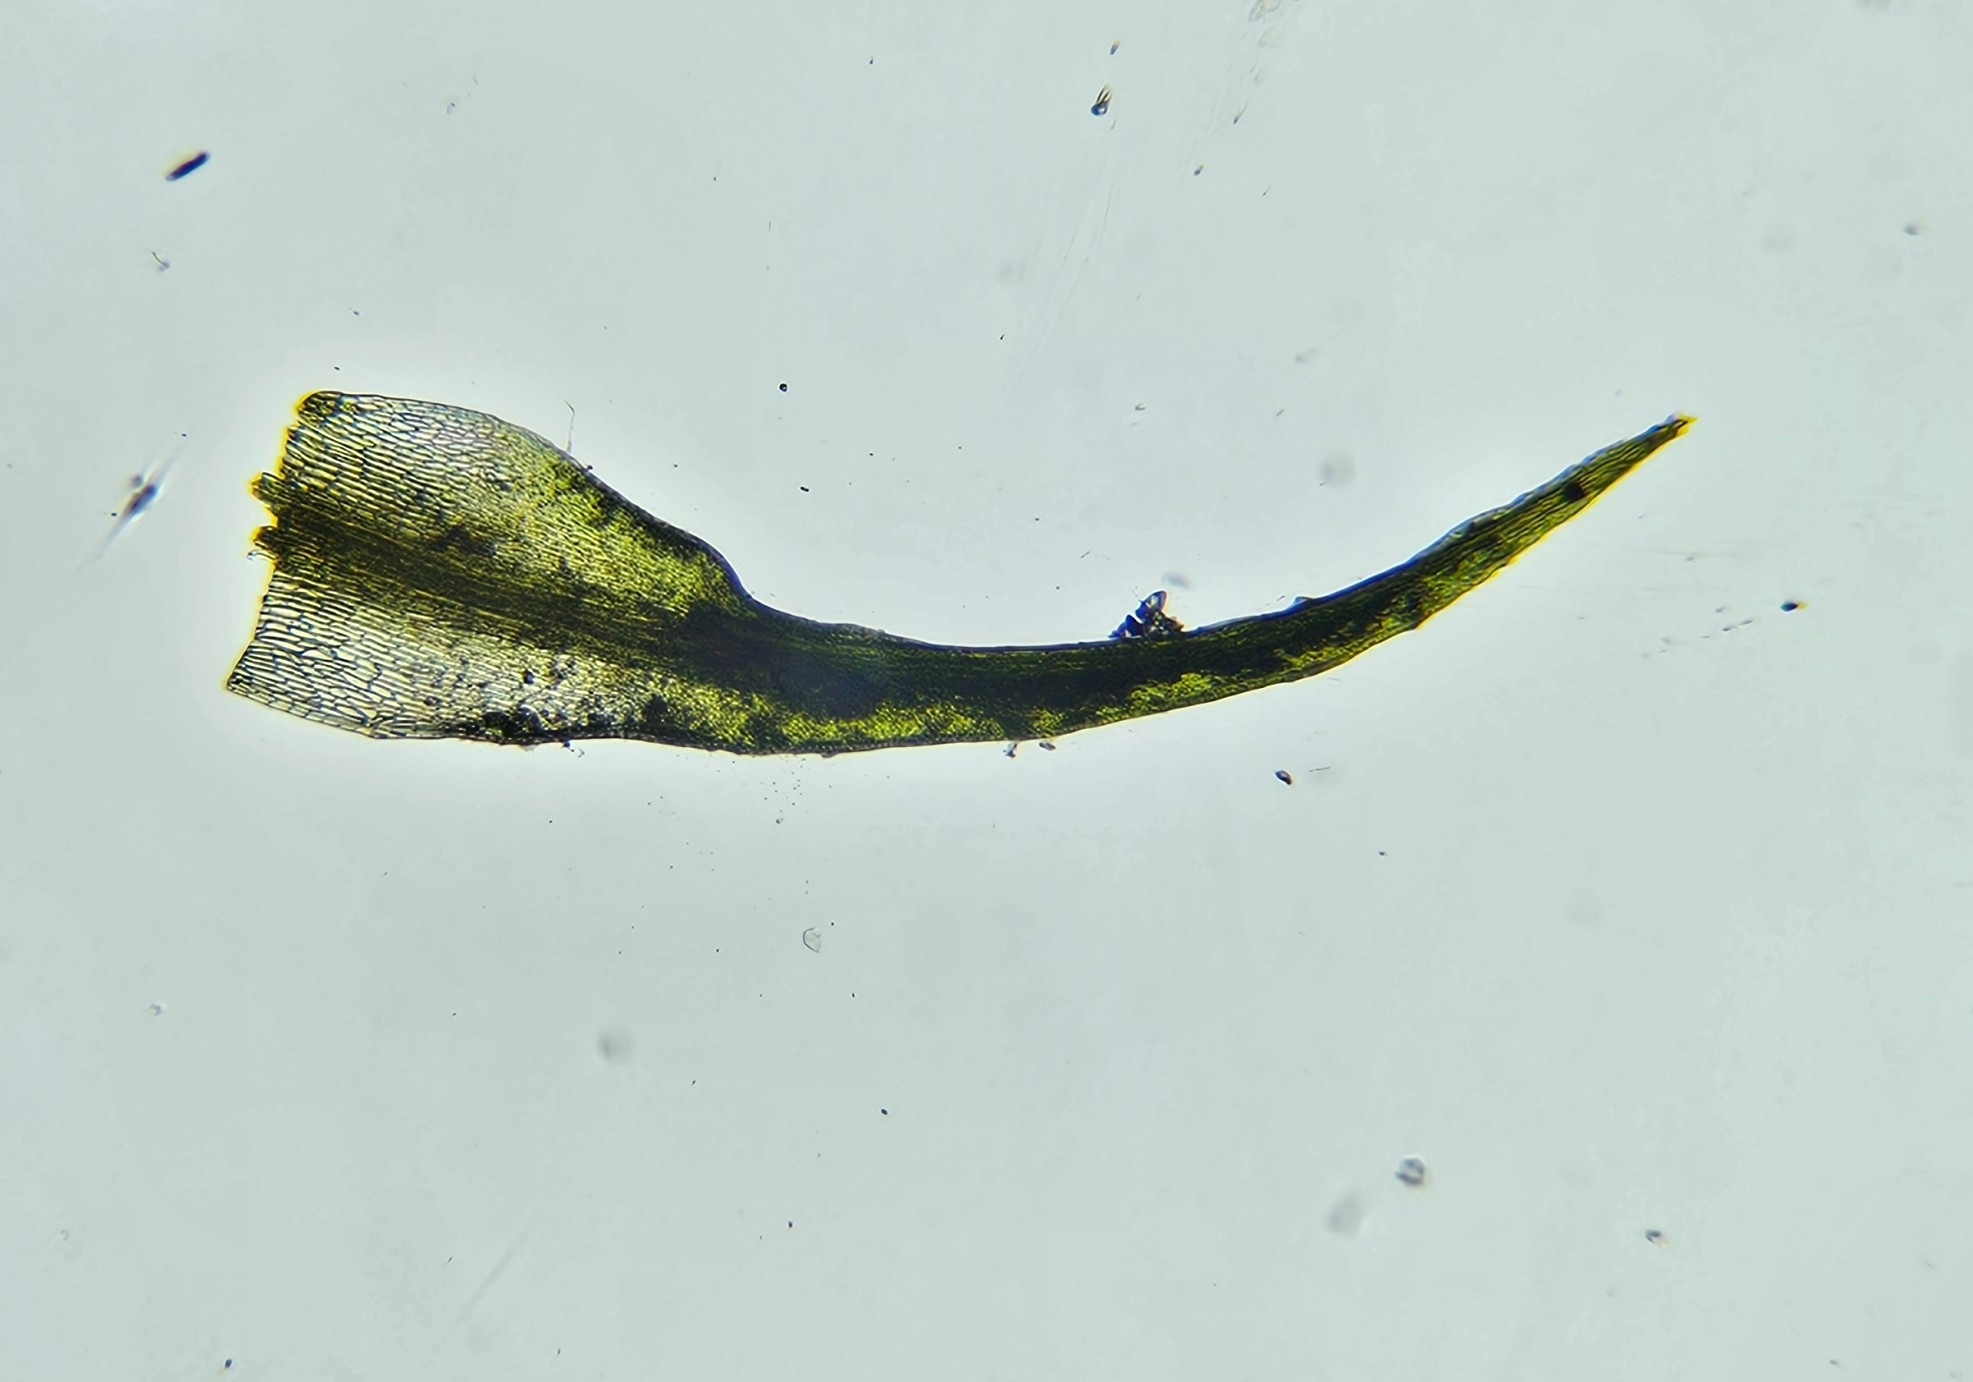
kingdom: Plantae
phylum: Bryophyta
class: Bryopsida
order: Dicranales
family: Ditrichaceae
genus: Ceratodon
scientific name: Ceratodon purpureus
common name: Redshank
